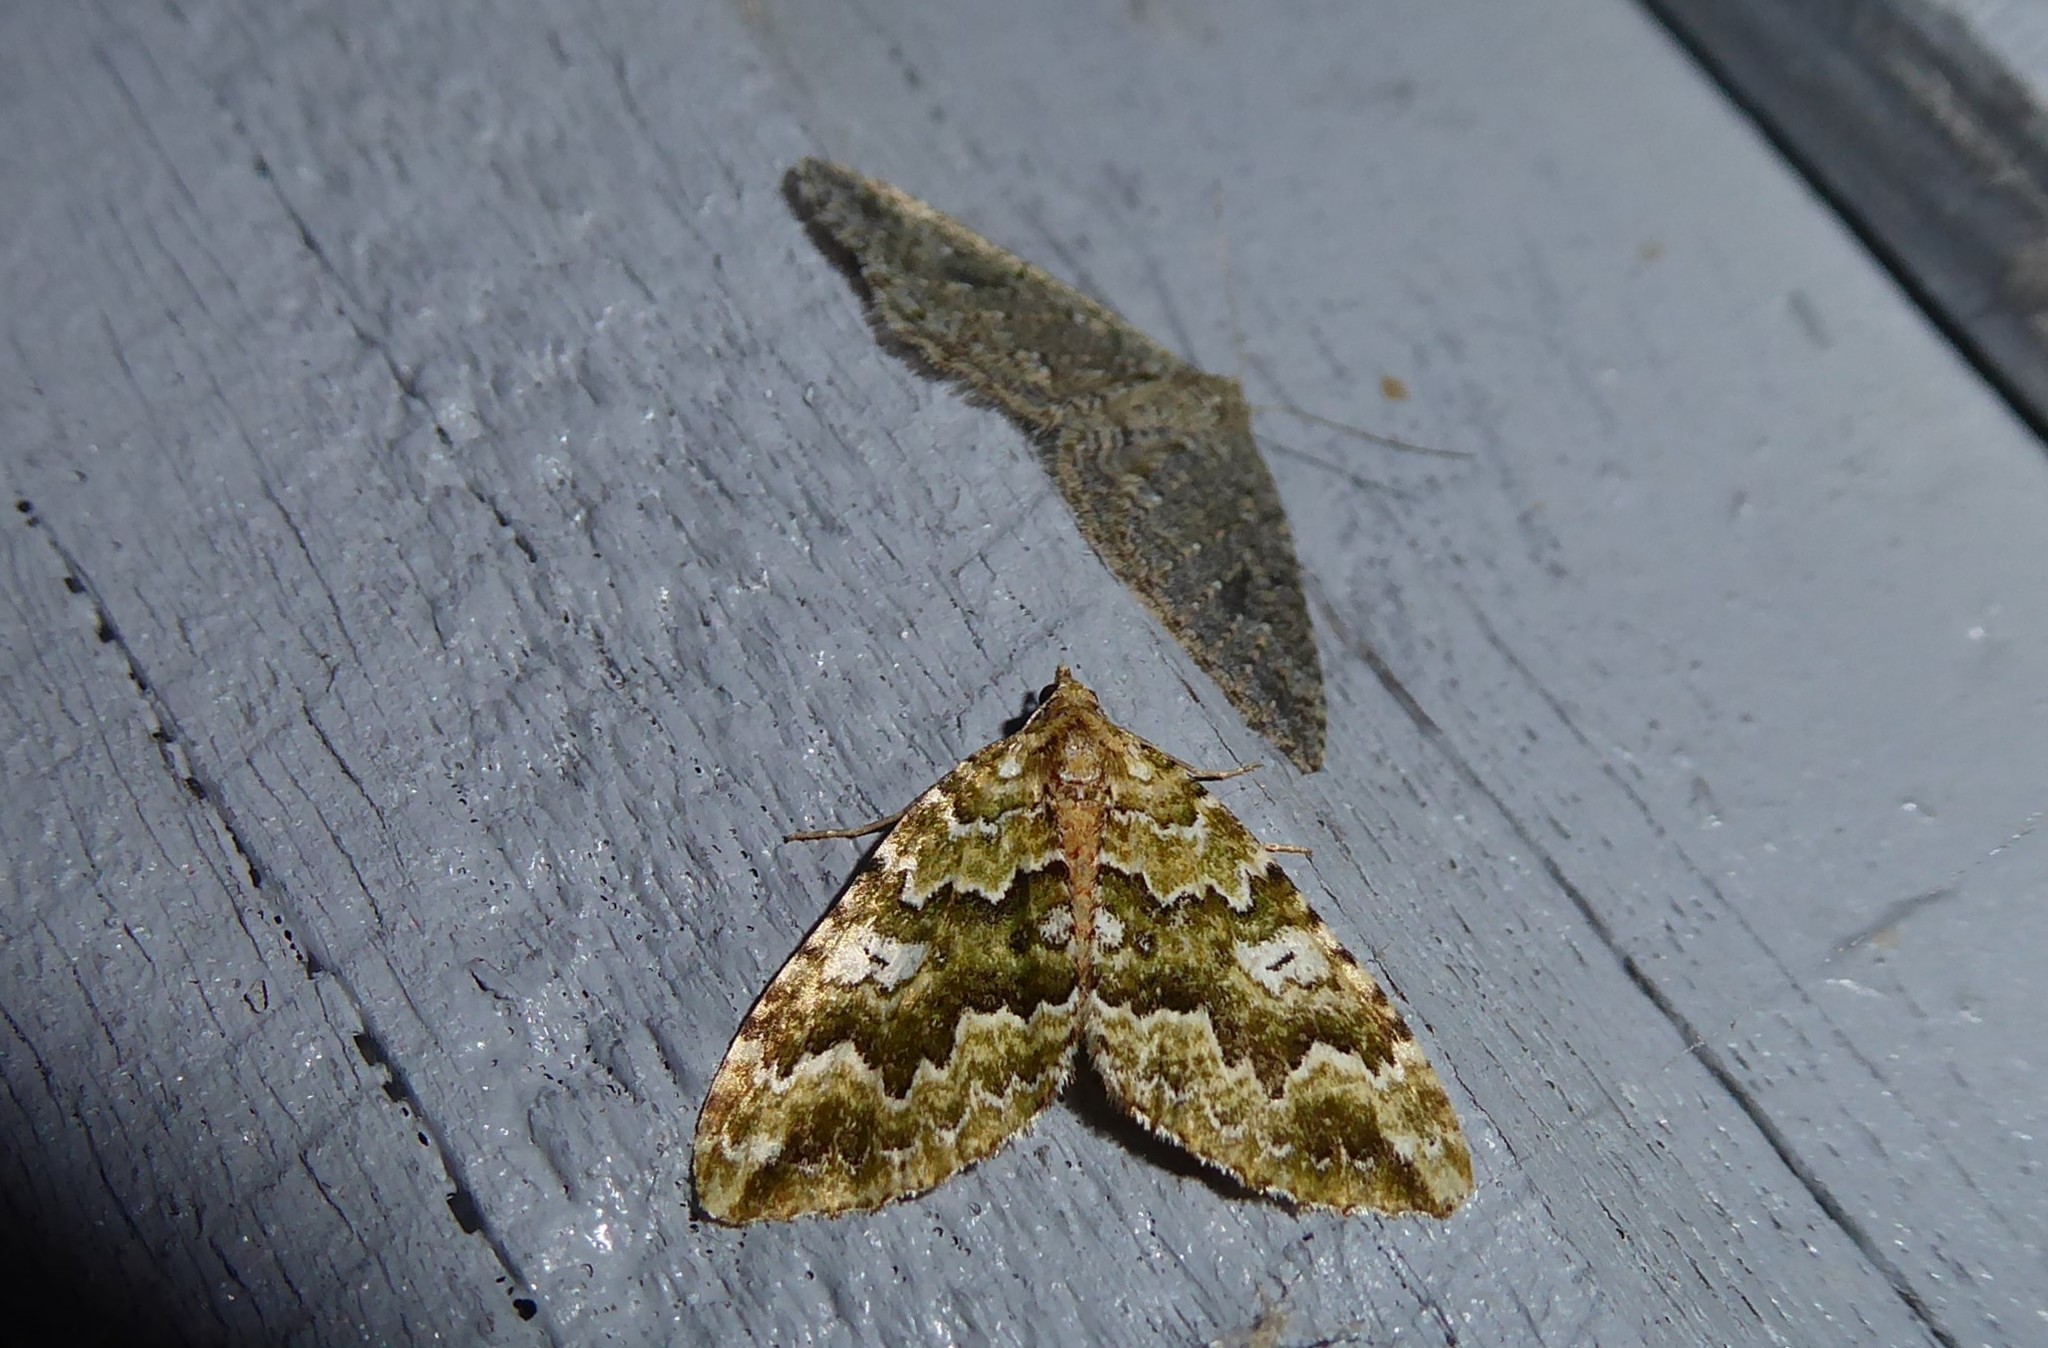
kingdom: Animalia
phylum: Arthropoda
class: Insecta
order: Lepidoptera
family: Geometridae
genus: Asaphodes
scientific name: Asaphodes beata
